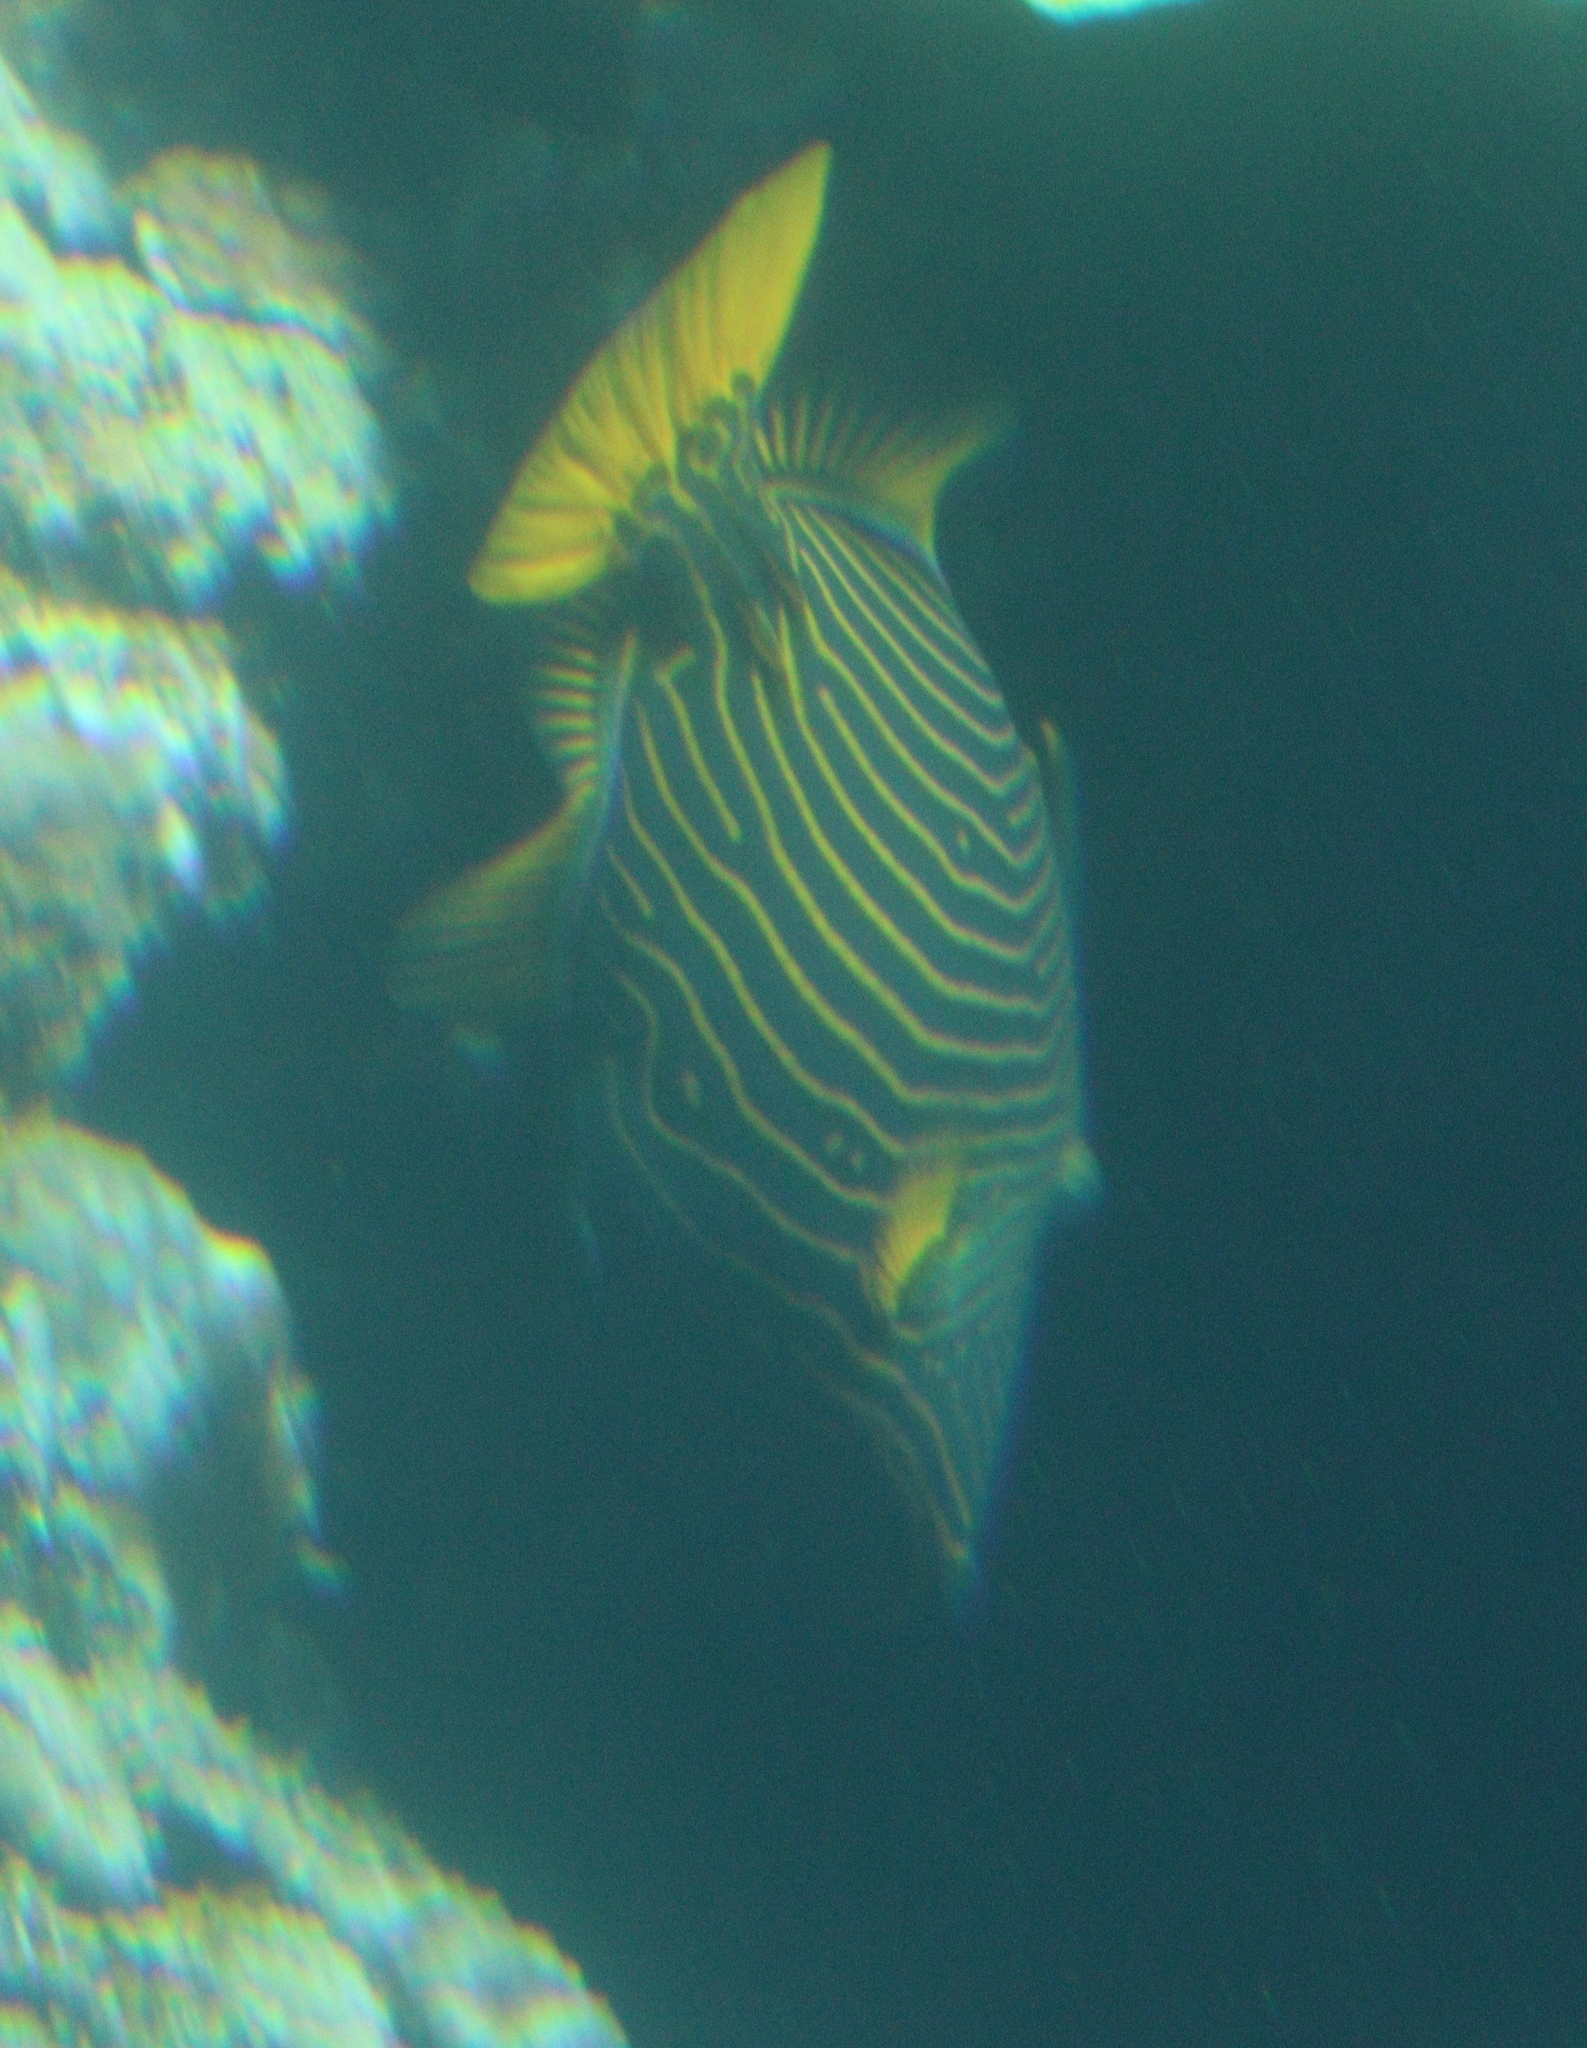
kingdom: Animalia
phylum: Chordata
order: Tetraodontiformes
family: Balistidae
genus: Balistapus
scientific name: Balistapus undulatus
